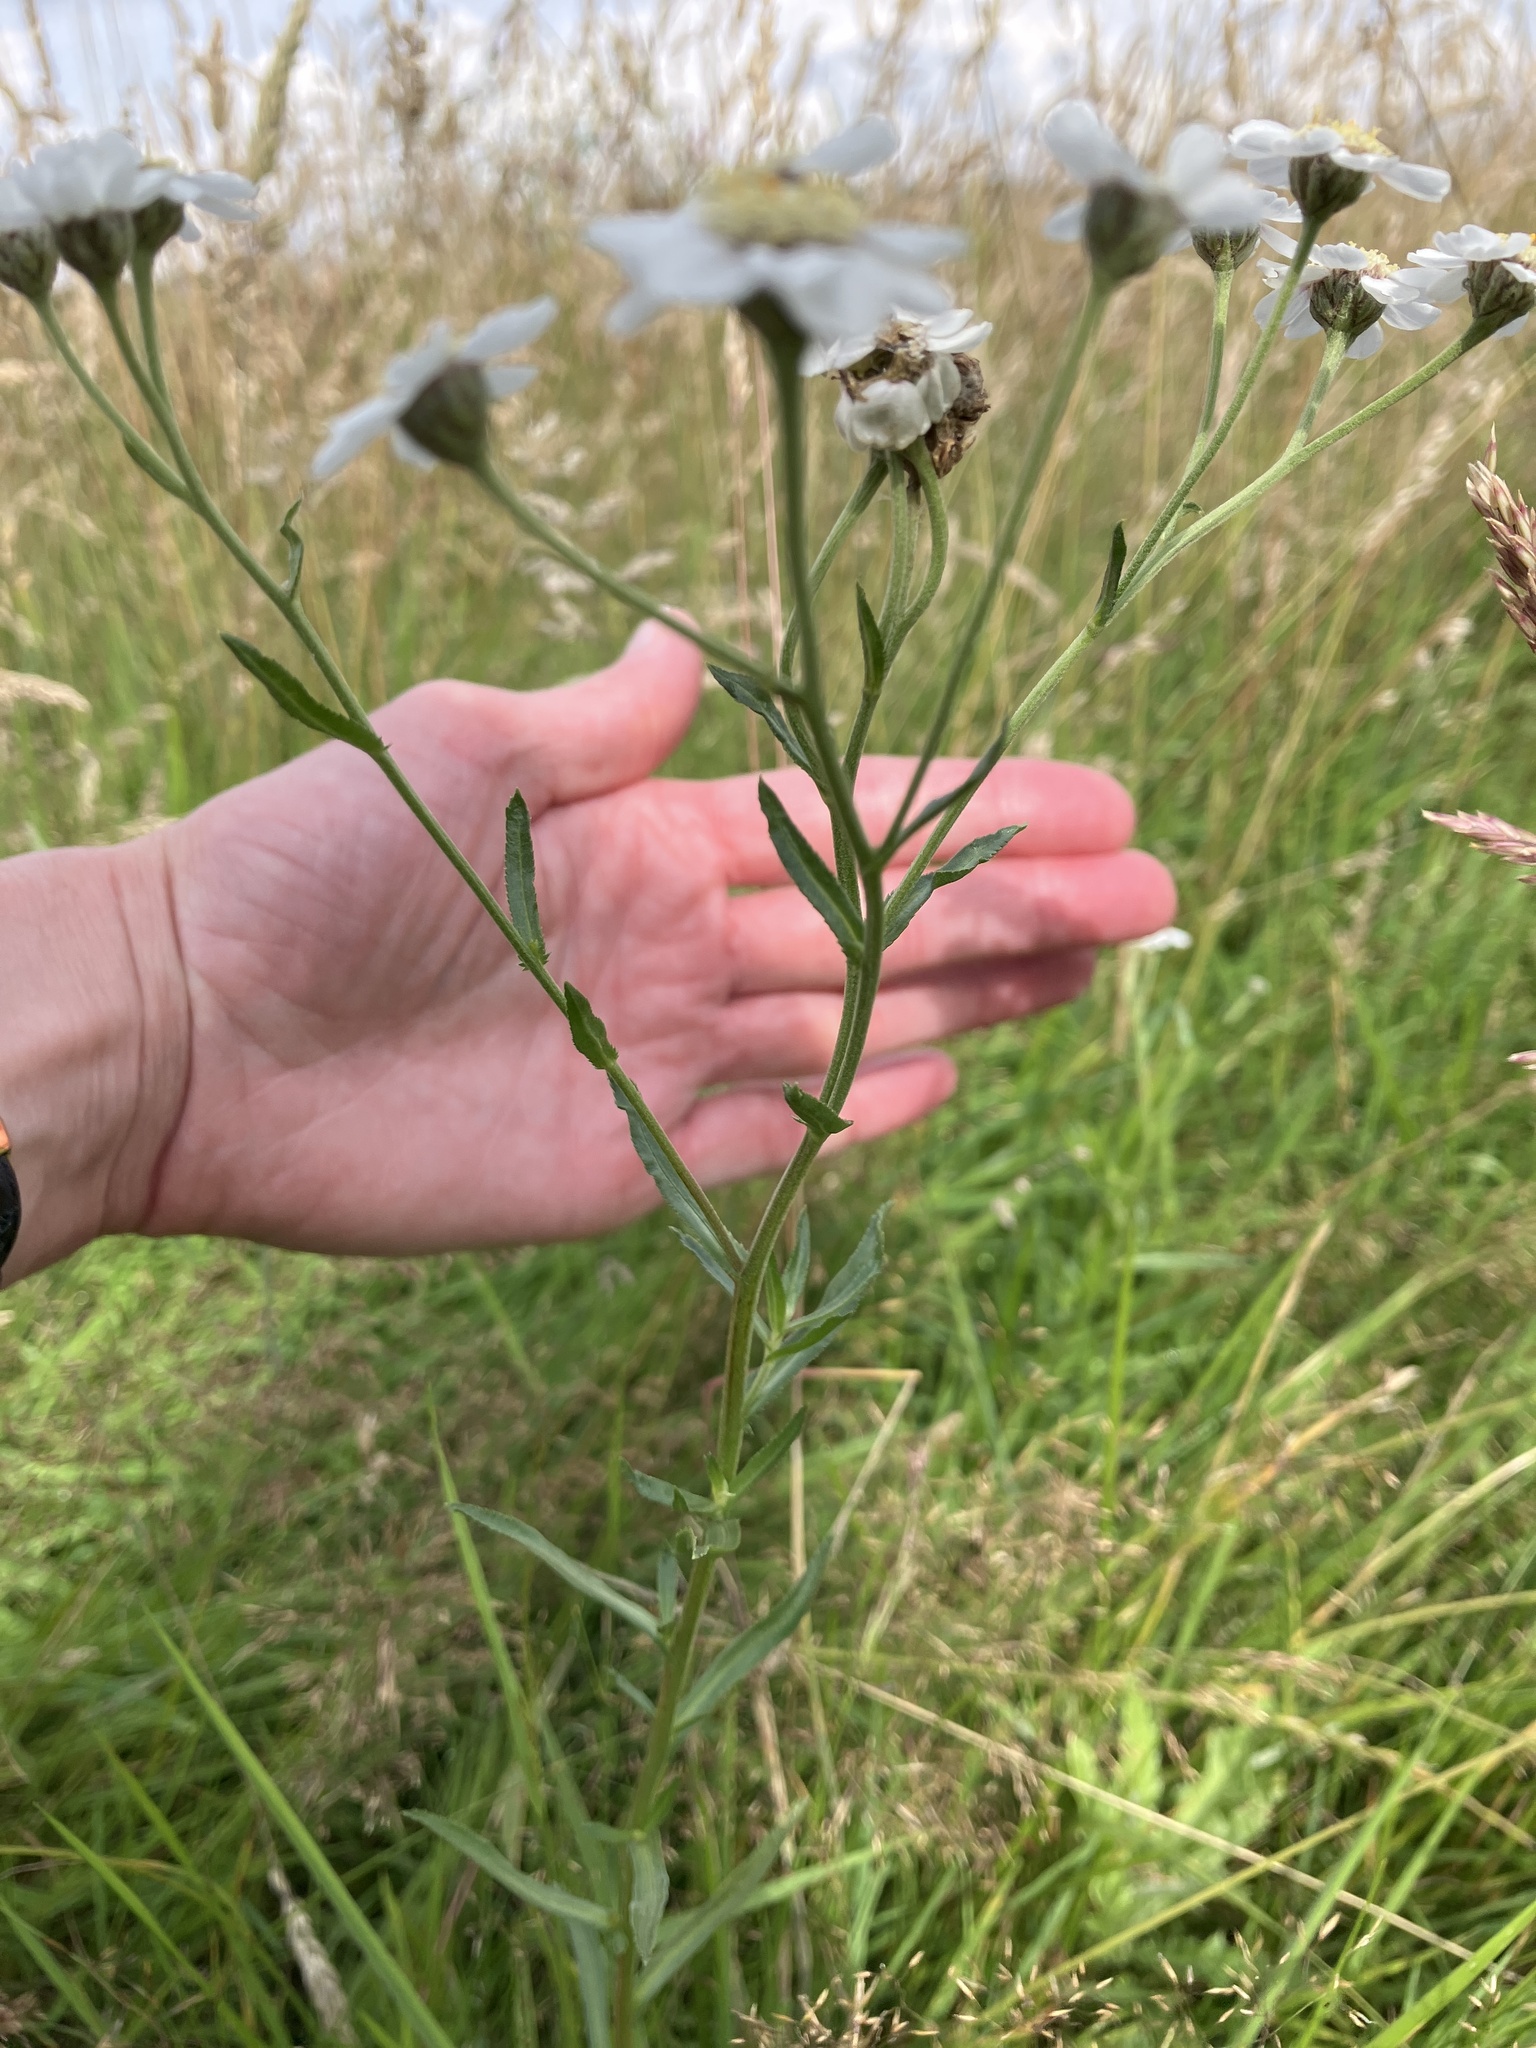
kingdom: Plantae
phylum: Tracheophyta
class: Magnoliopsida
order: Asterales
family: Asteraceae
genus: Achillea
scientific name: Achillea ptarmica
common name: Sneezeweed
